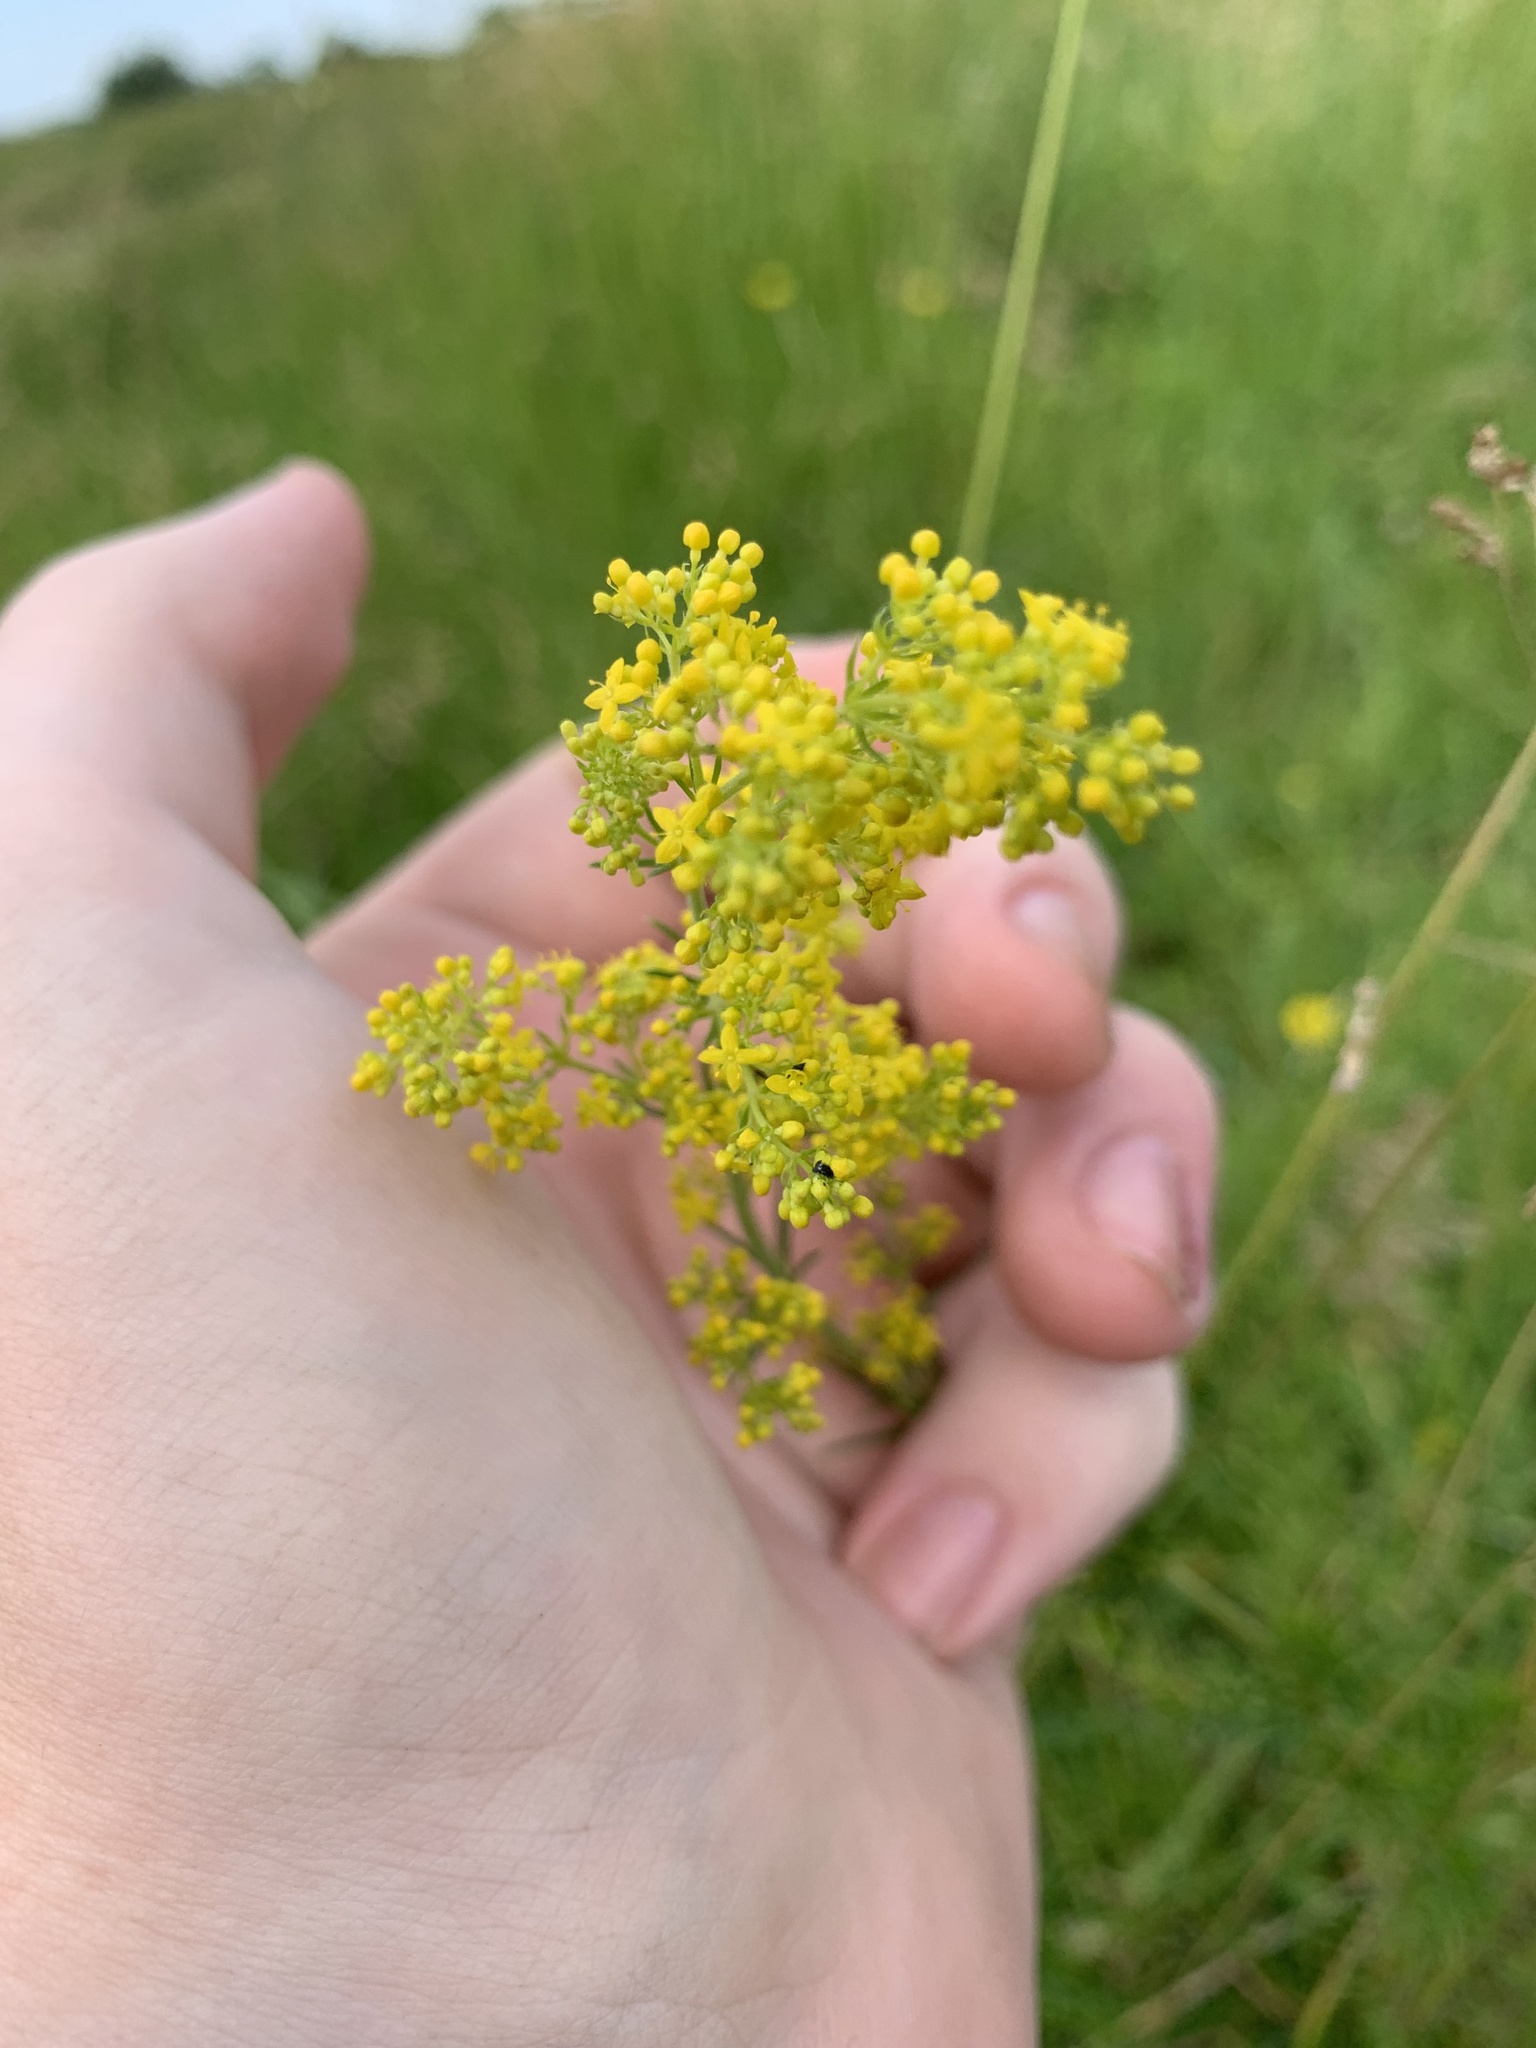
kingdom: Plantae
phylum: Tracheophyta
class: Magnoliopsida
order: Gentianales
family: Rubiaceae
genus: Galium
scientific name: Galium verum
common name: Lady's bedstraw
